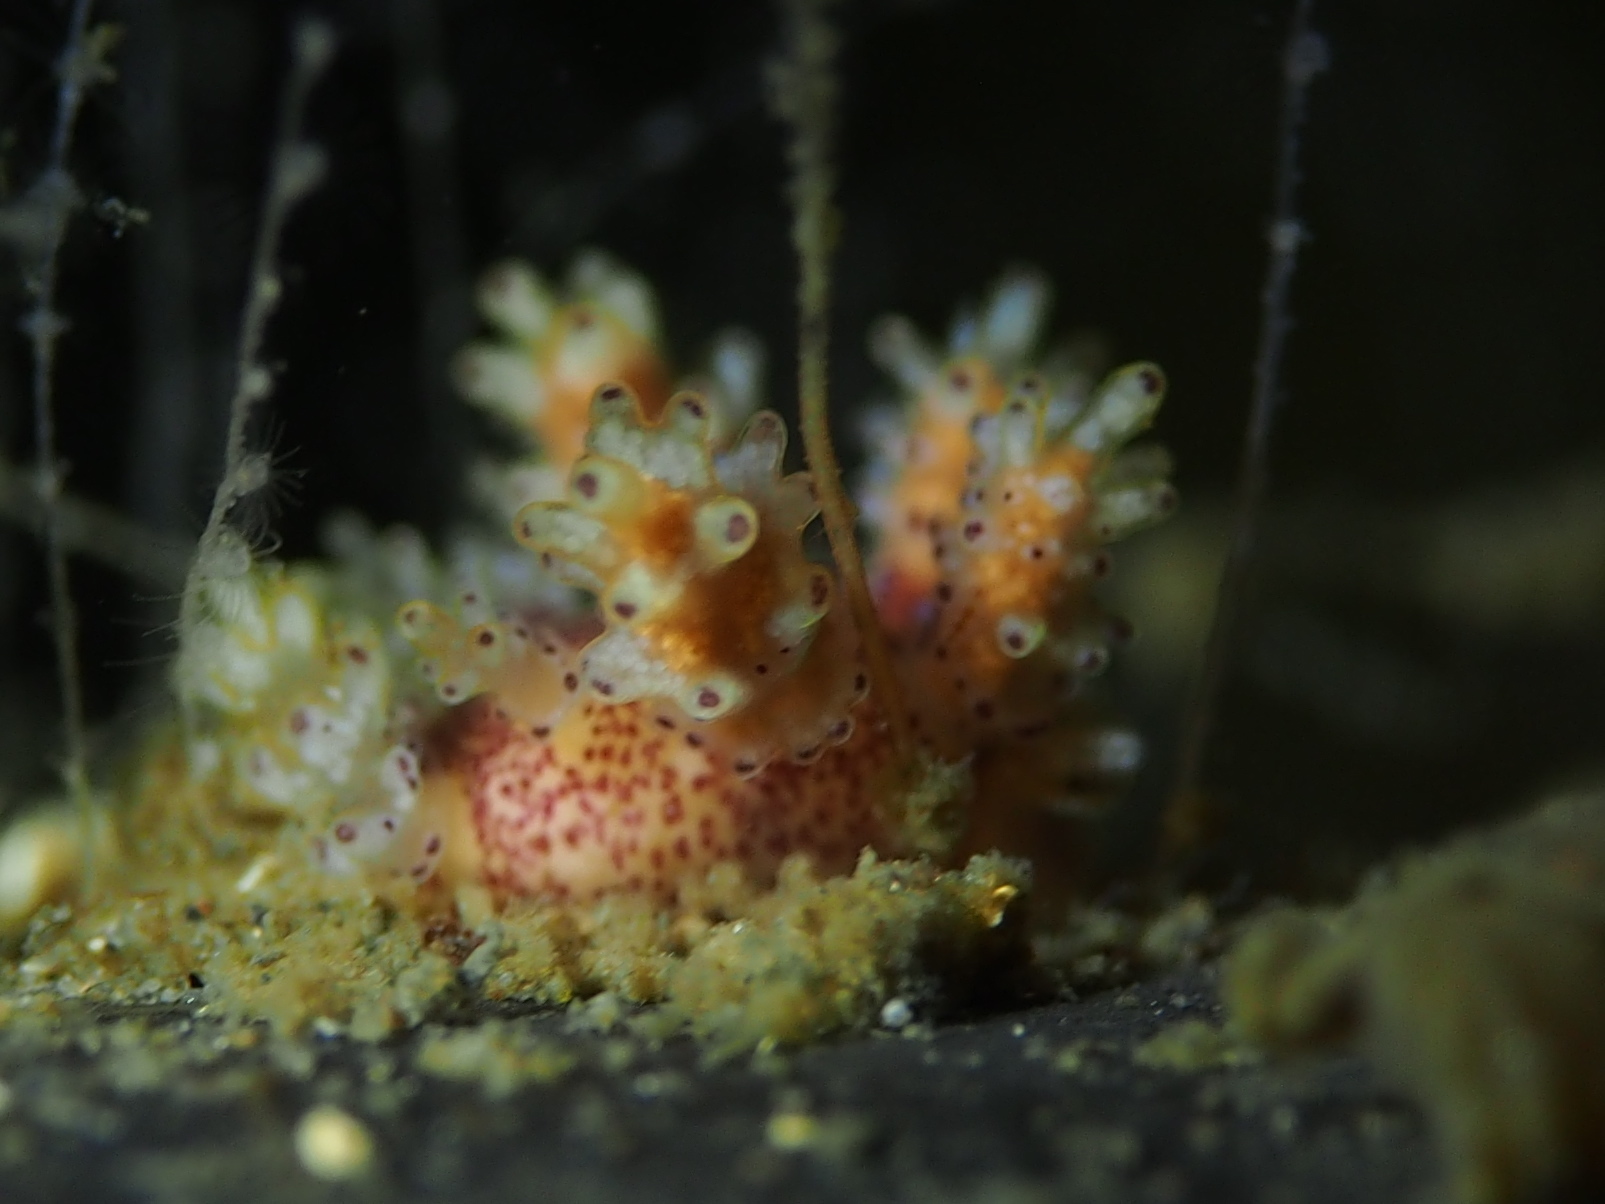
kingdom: Animalia
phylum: Mollusca
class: Gastropoda
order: Nudibranchia
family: Dotidae
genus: Doto
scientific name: Doto maculata
